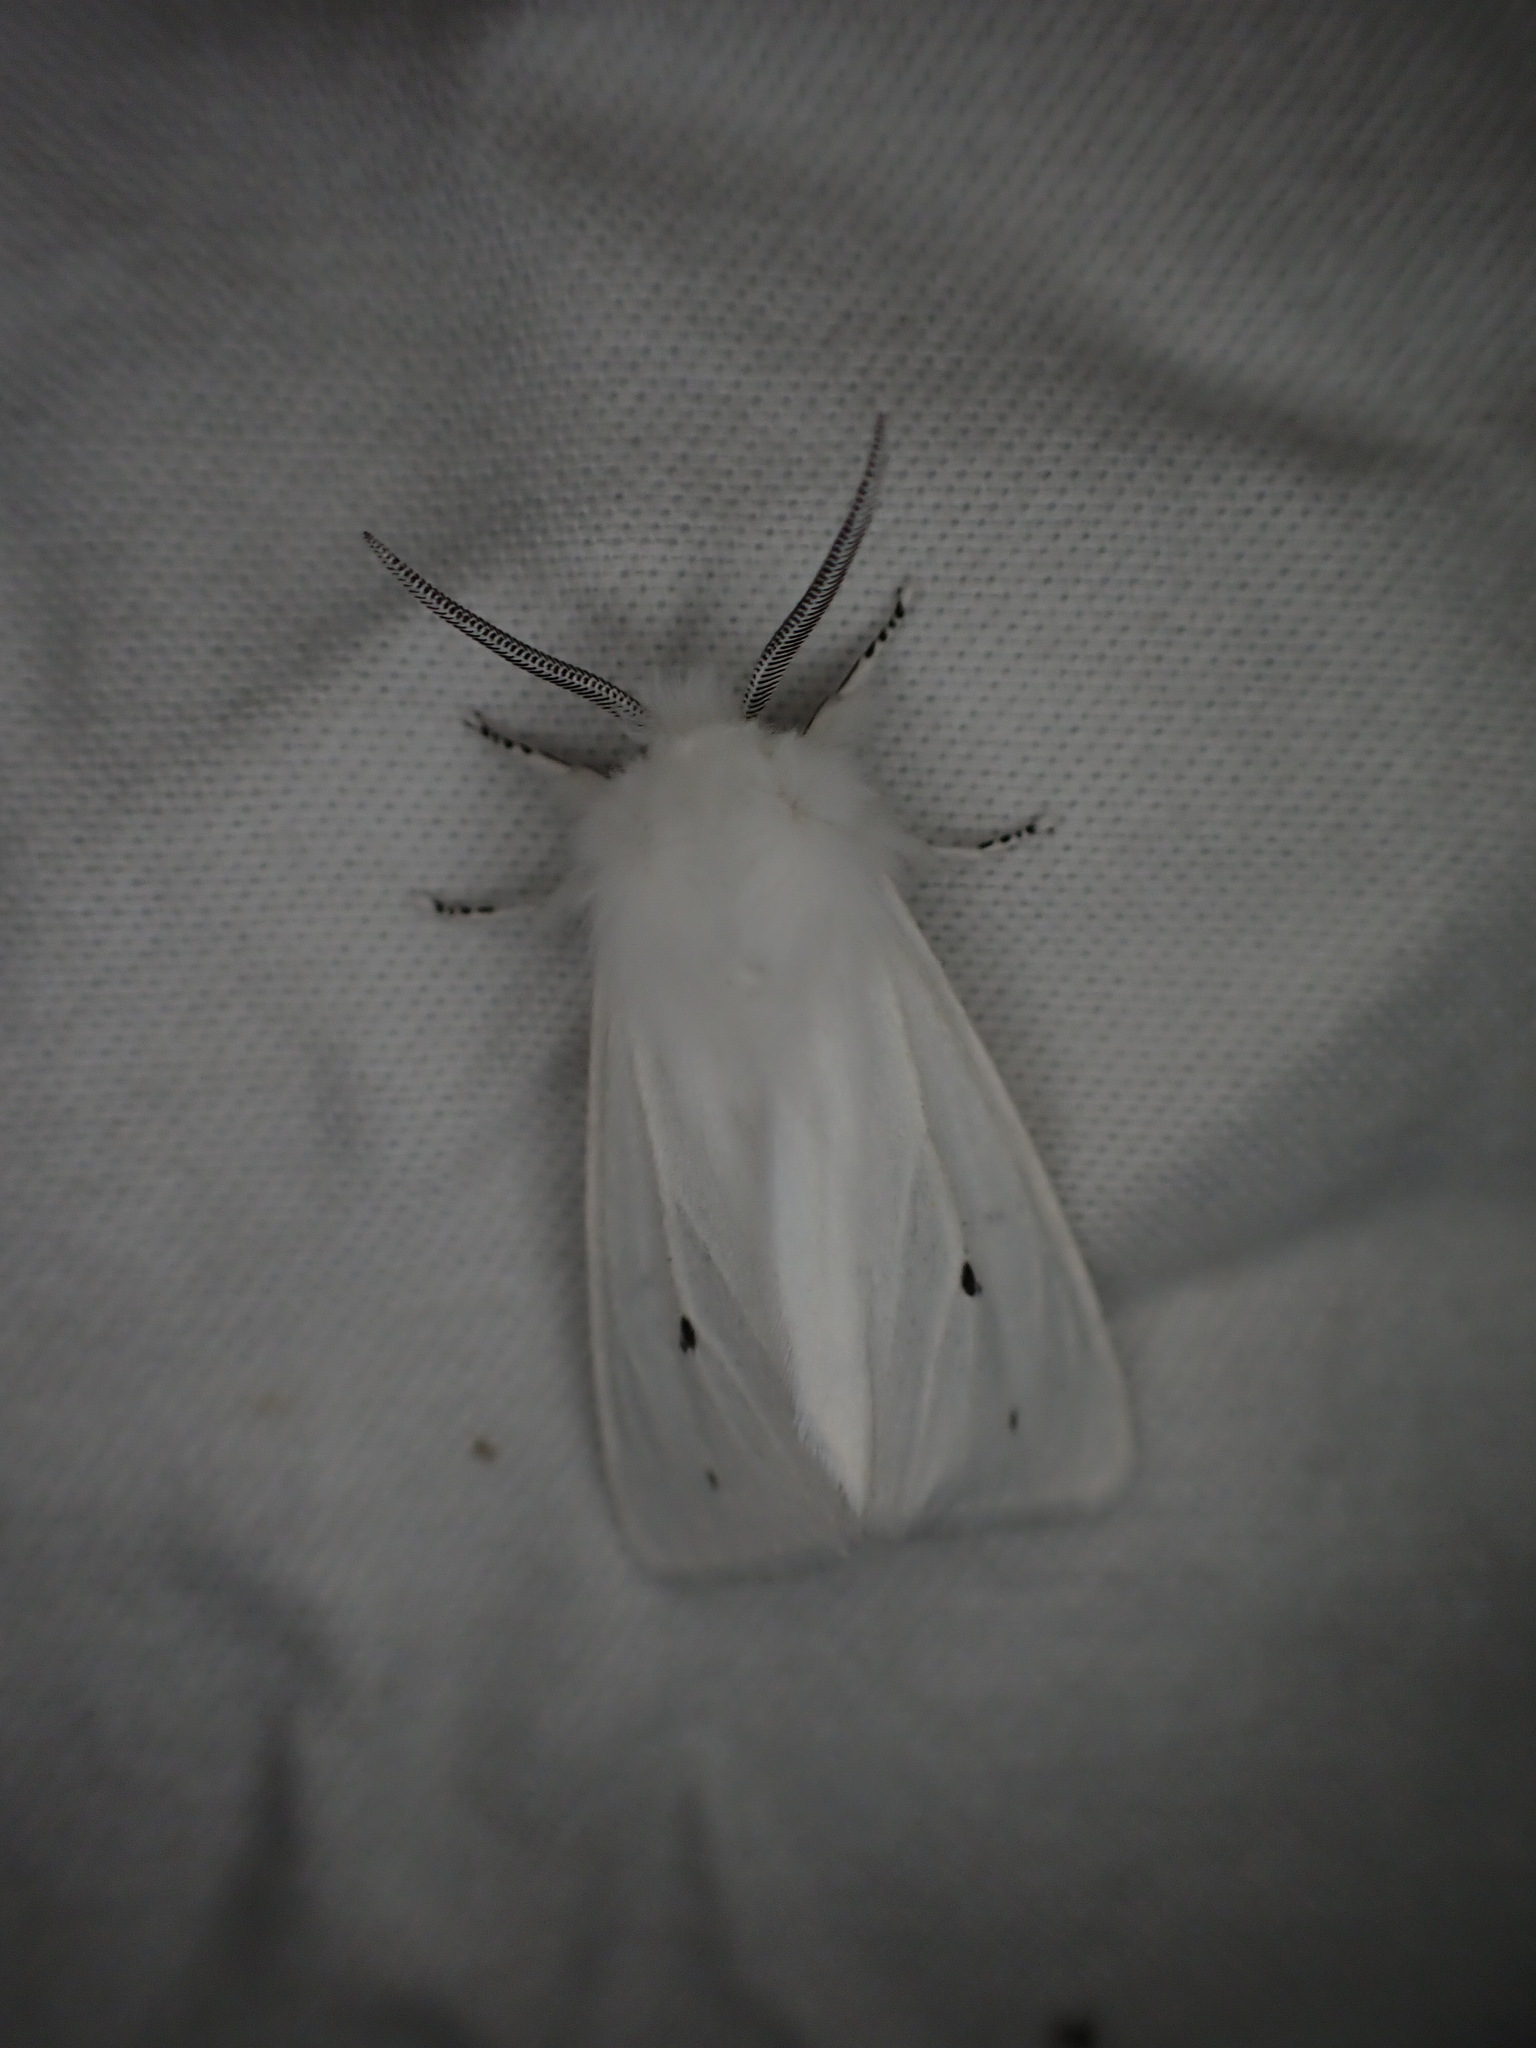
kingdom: Animalia
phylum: Arthropoda
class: Insecta
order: Lepidoptera
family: Erebidae
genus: Spilosoma
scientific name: Spilosoma virginica
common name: Virginia tiger moth
